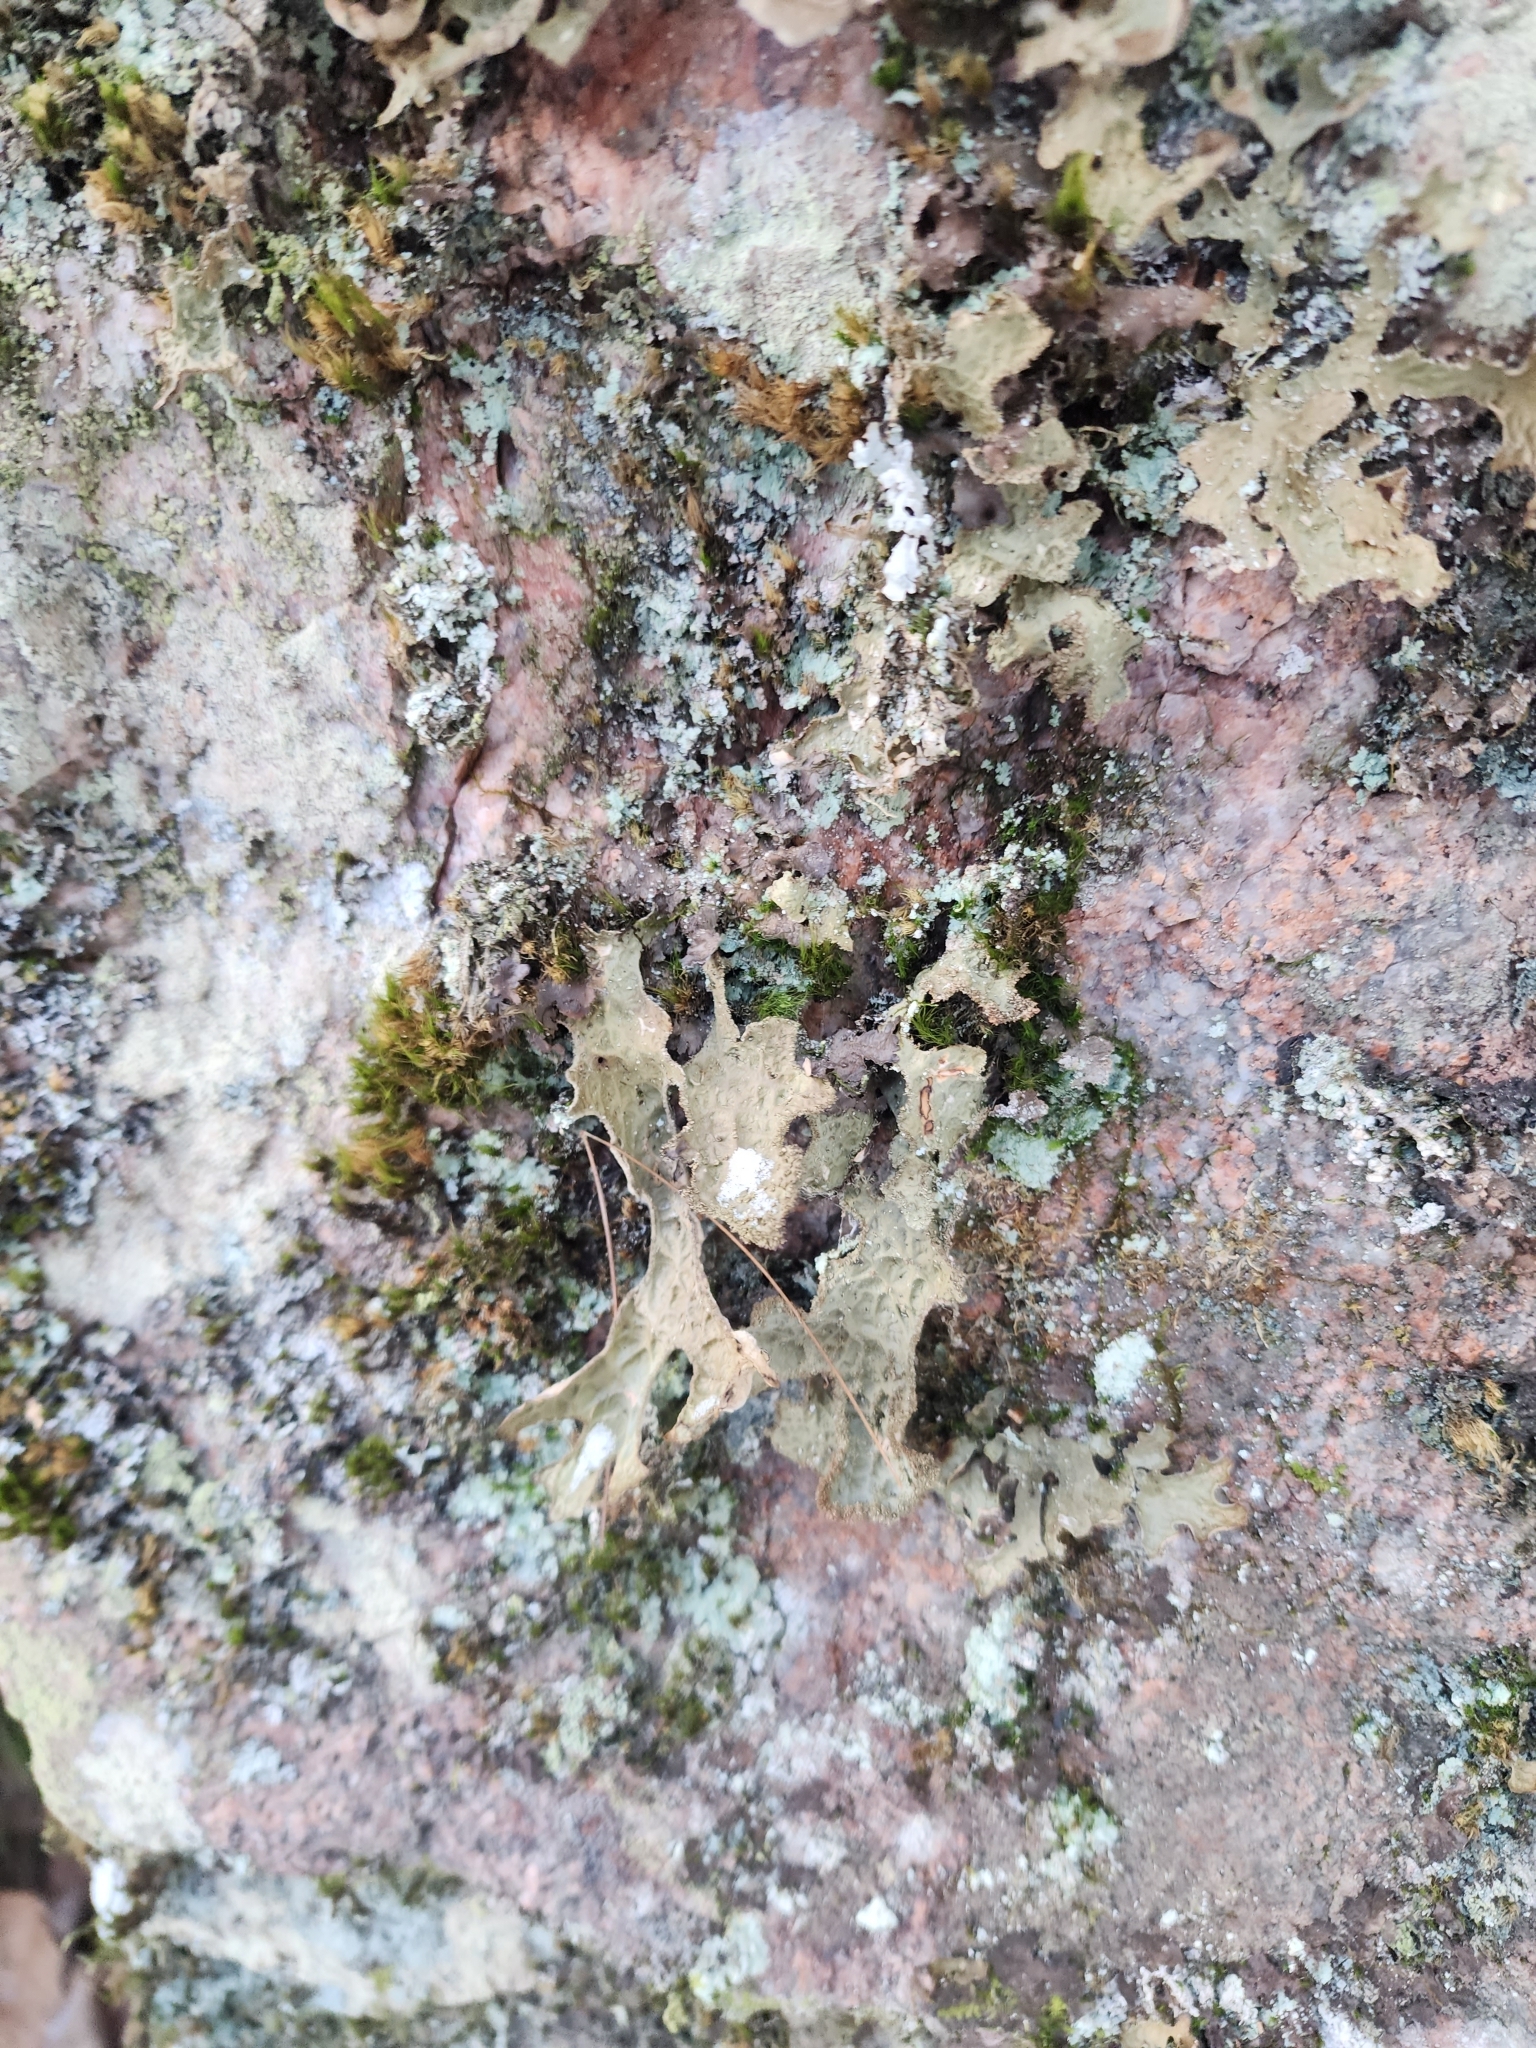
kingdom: Fungi
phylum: Ascomycota
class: Lecanoromycetes
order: Peltigerales
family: Lobariaceae
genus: Lobaria
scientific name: Lobaria pulmonaria
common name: Lungwort
